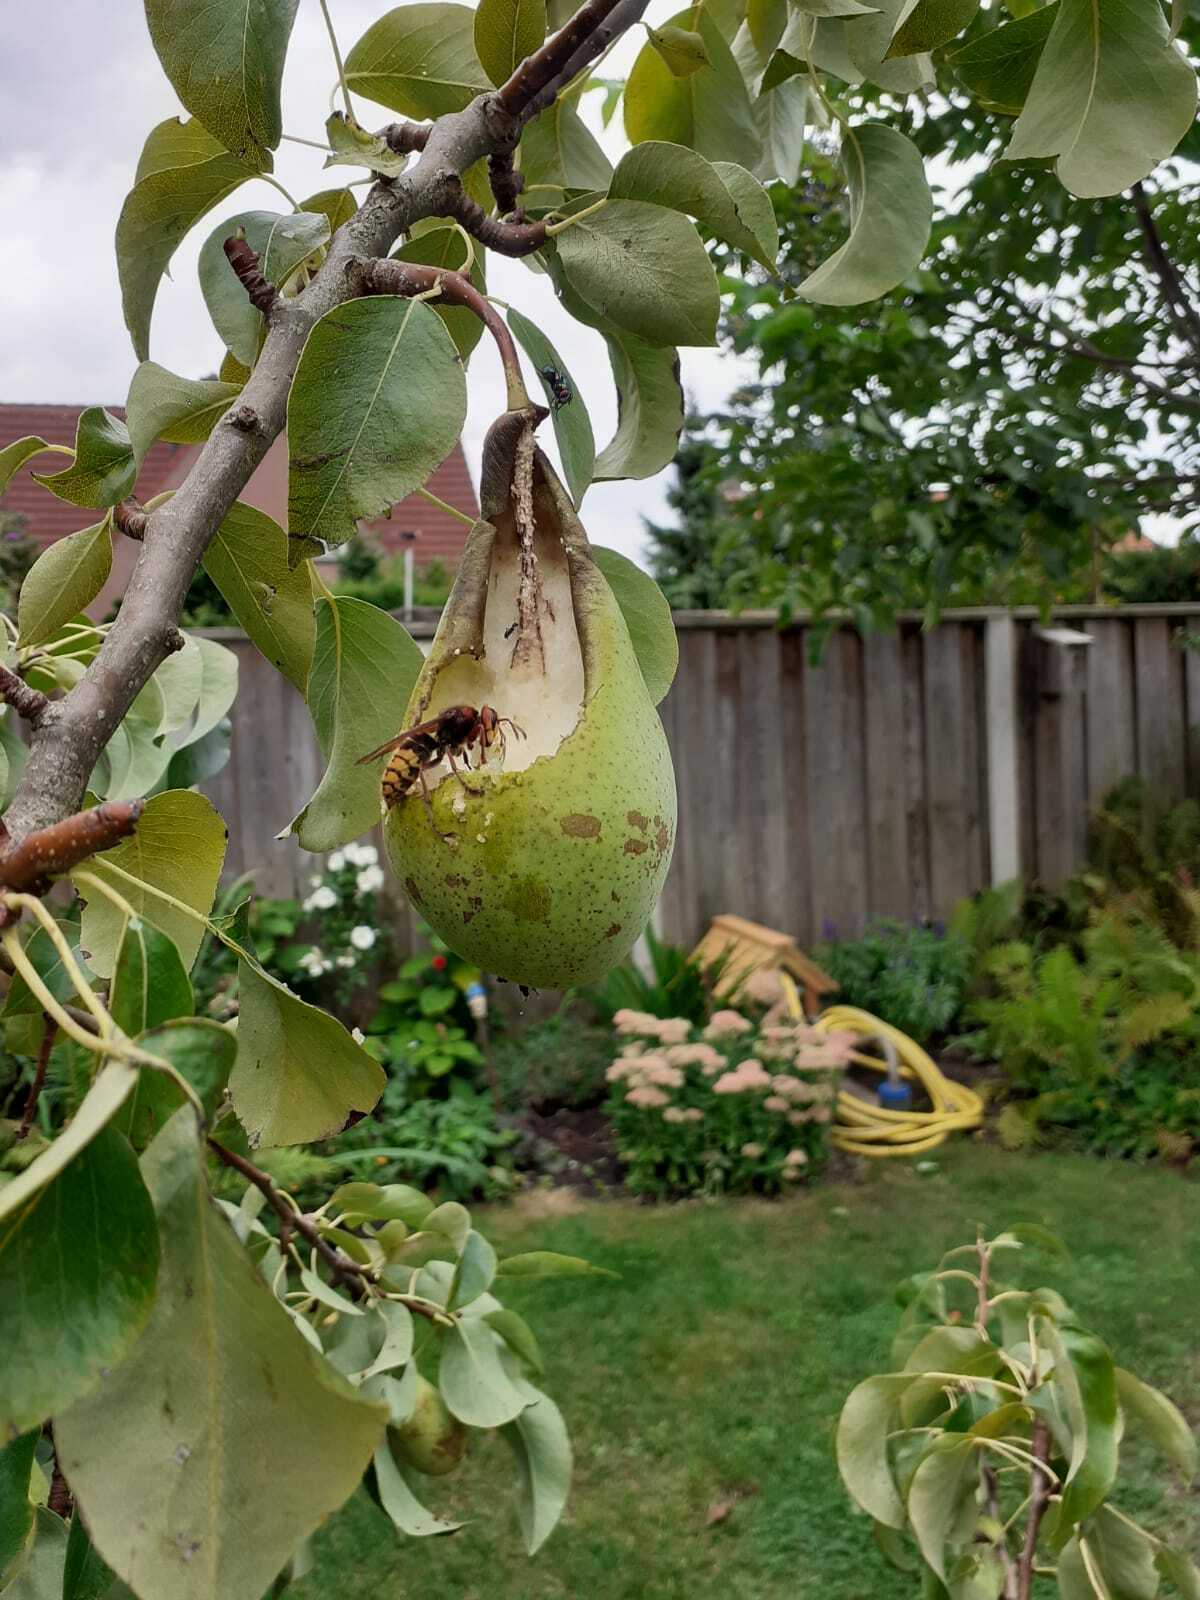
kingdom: Animalia
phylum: Arthropoda
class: Insecta
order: Hymenoptera
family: Vespidae
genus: Vespa
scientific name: Vespa crabro
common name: Hornet
